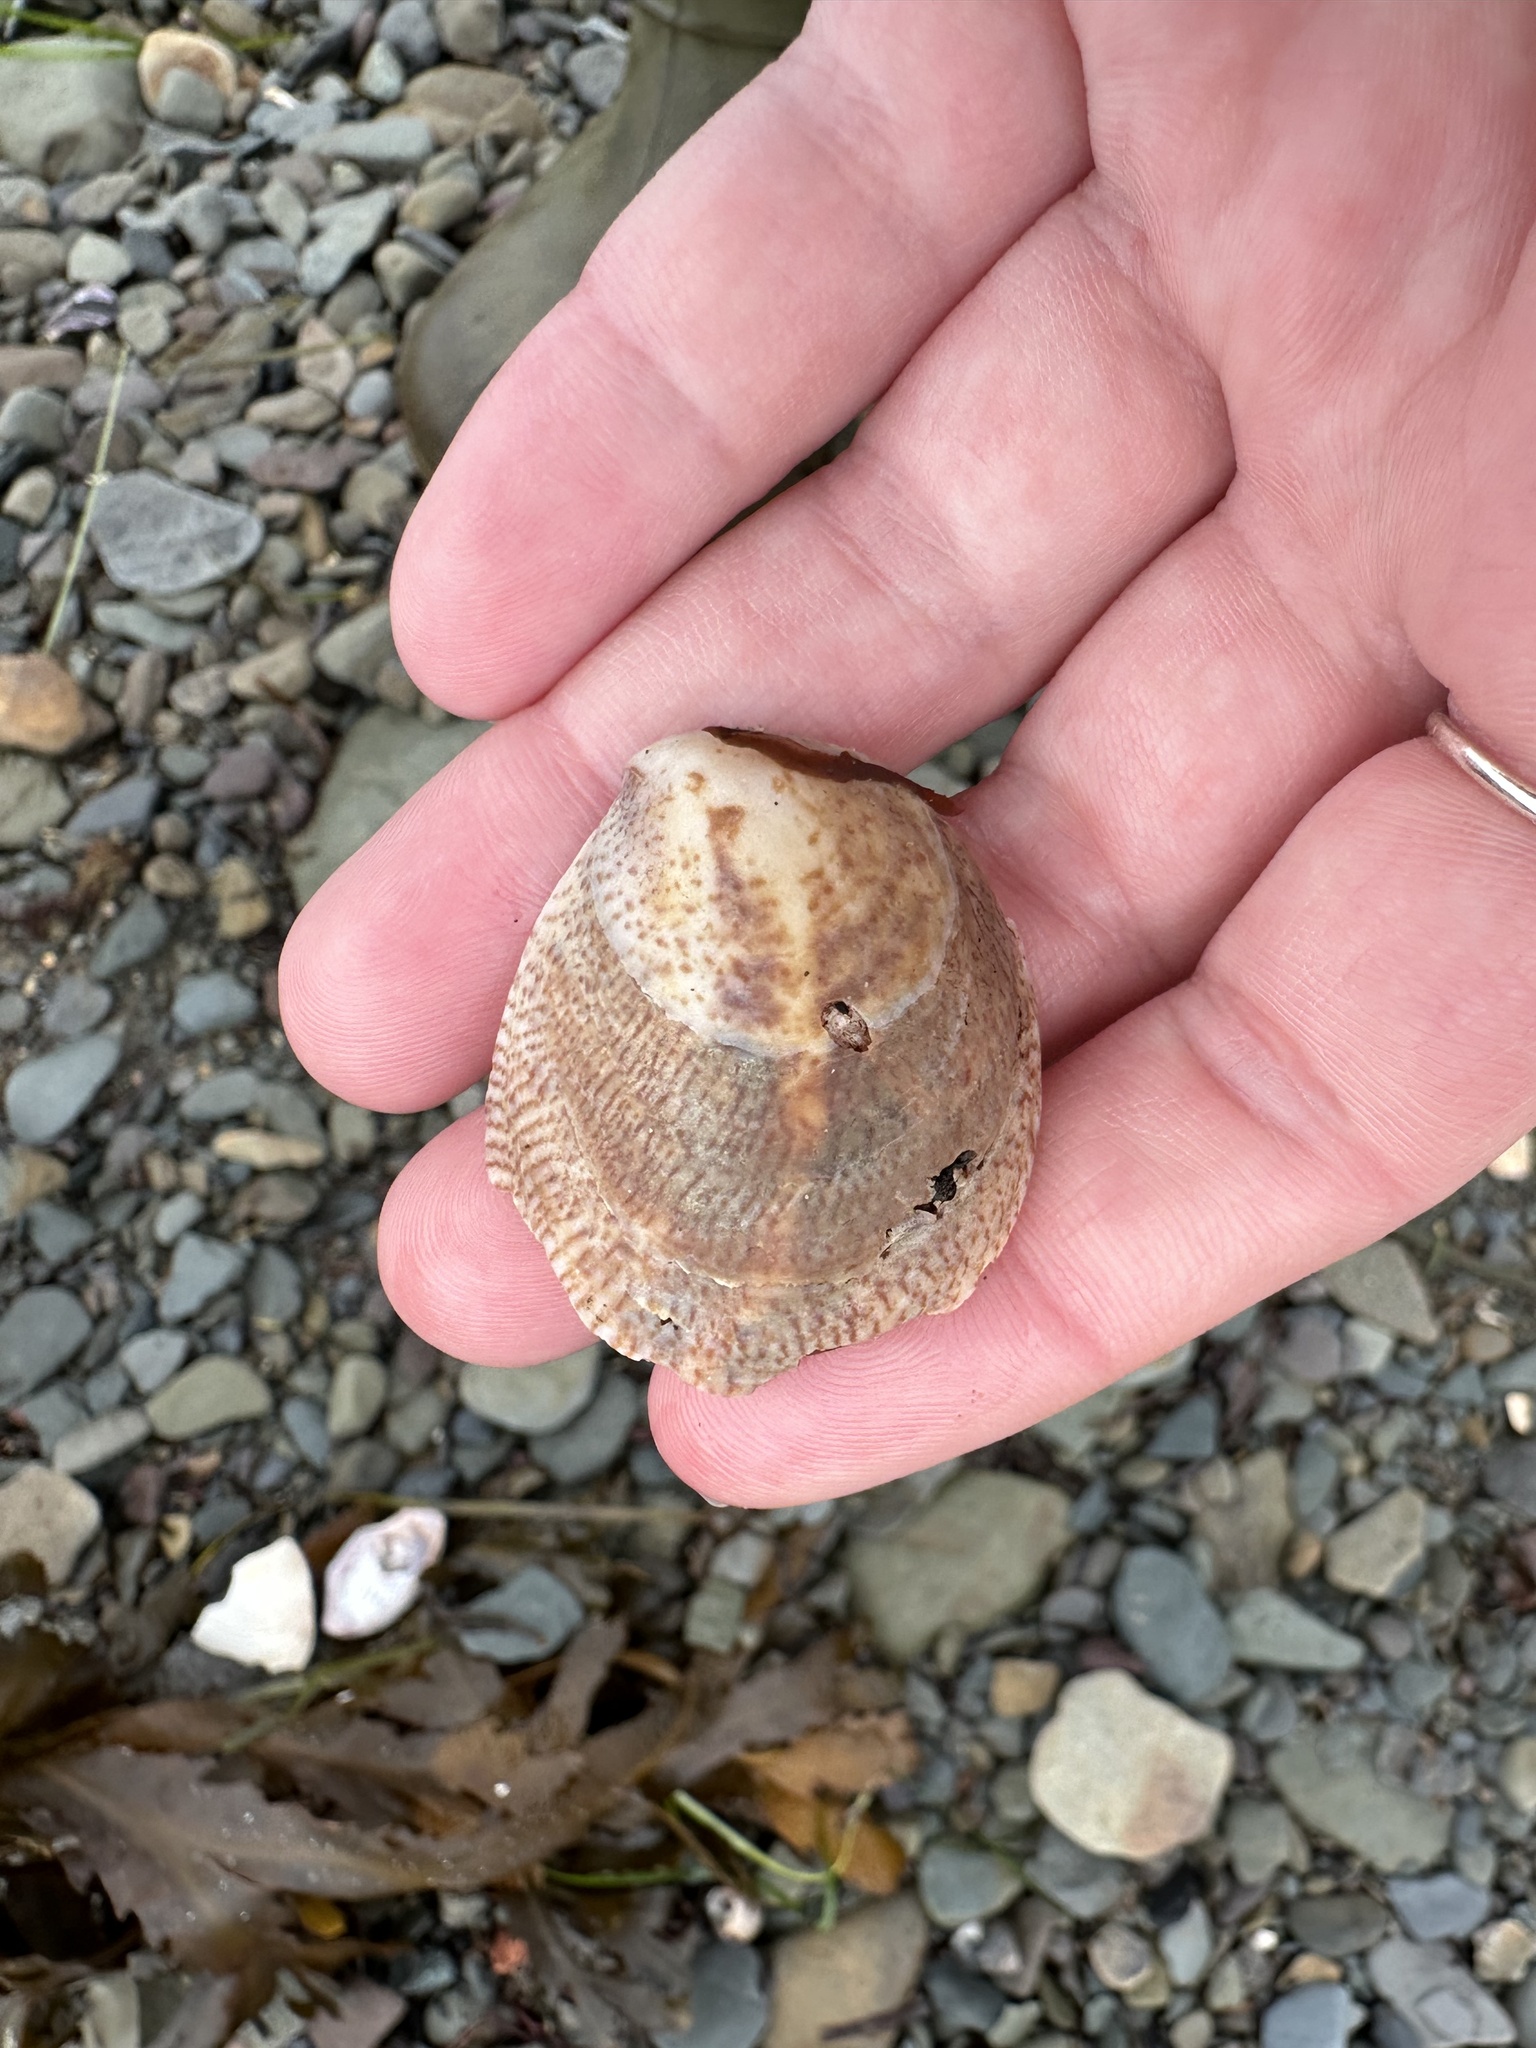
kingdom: Animalia
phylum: Mollusca
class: Gastropoda
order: Littorinimorpha
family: Calyptraeidae
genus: Crepidula
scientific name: Crepidula fornicata
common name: Slipper limpet
